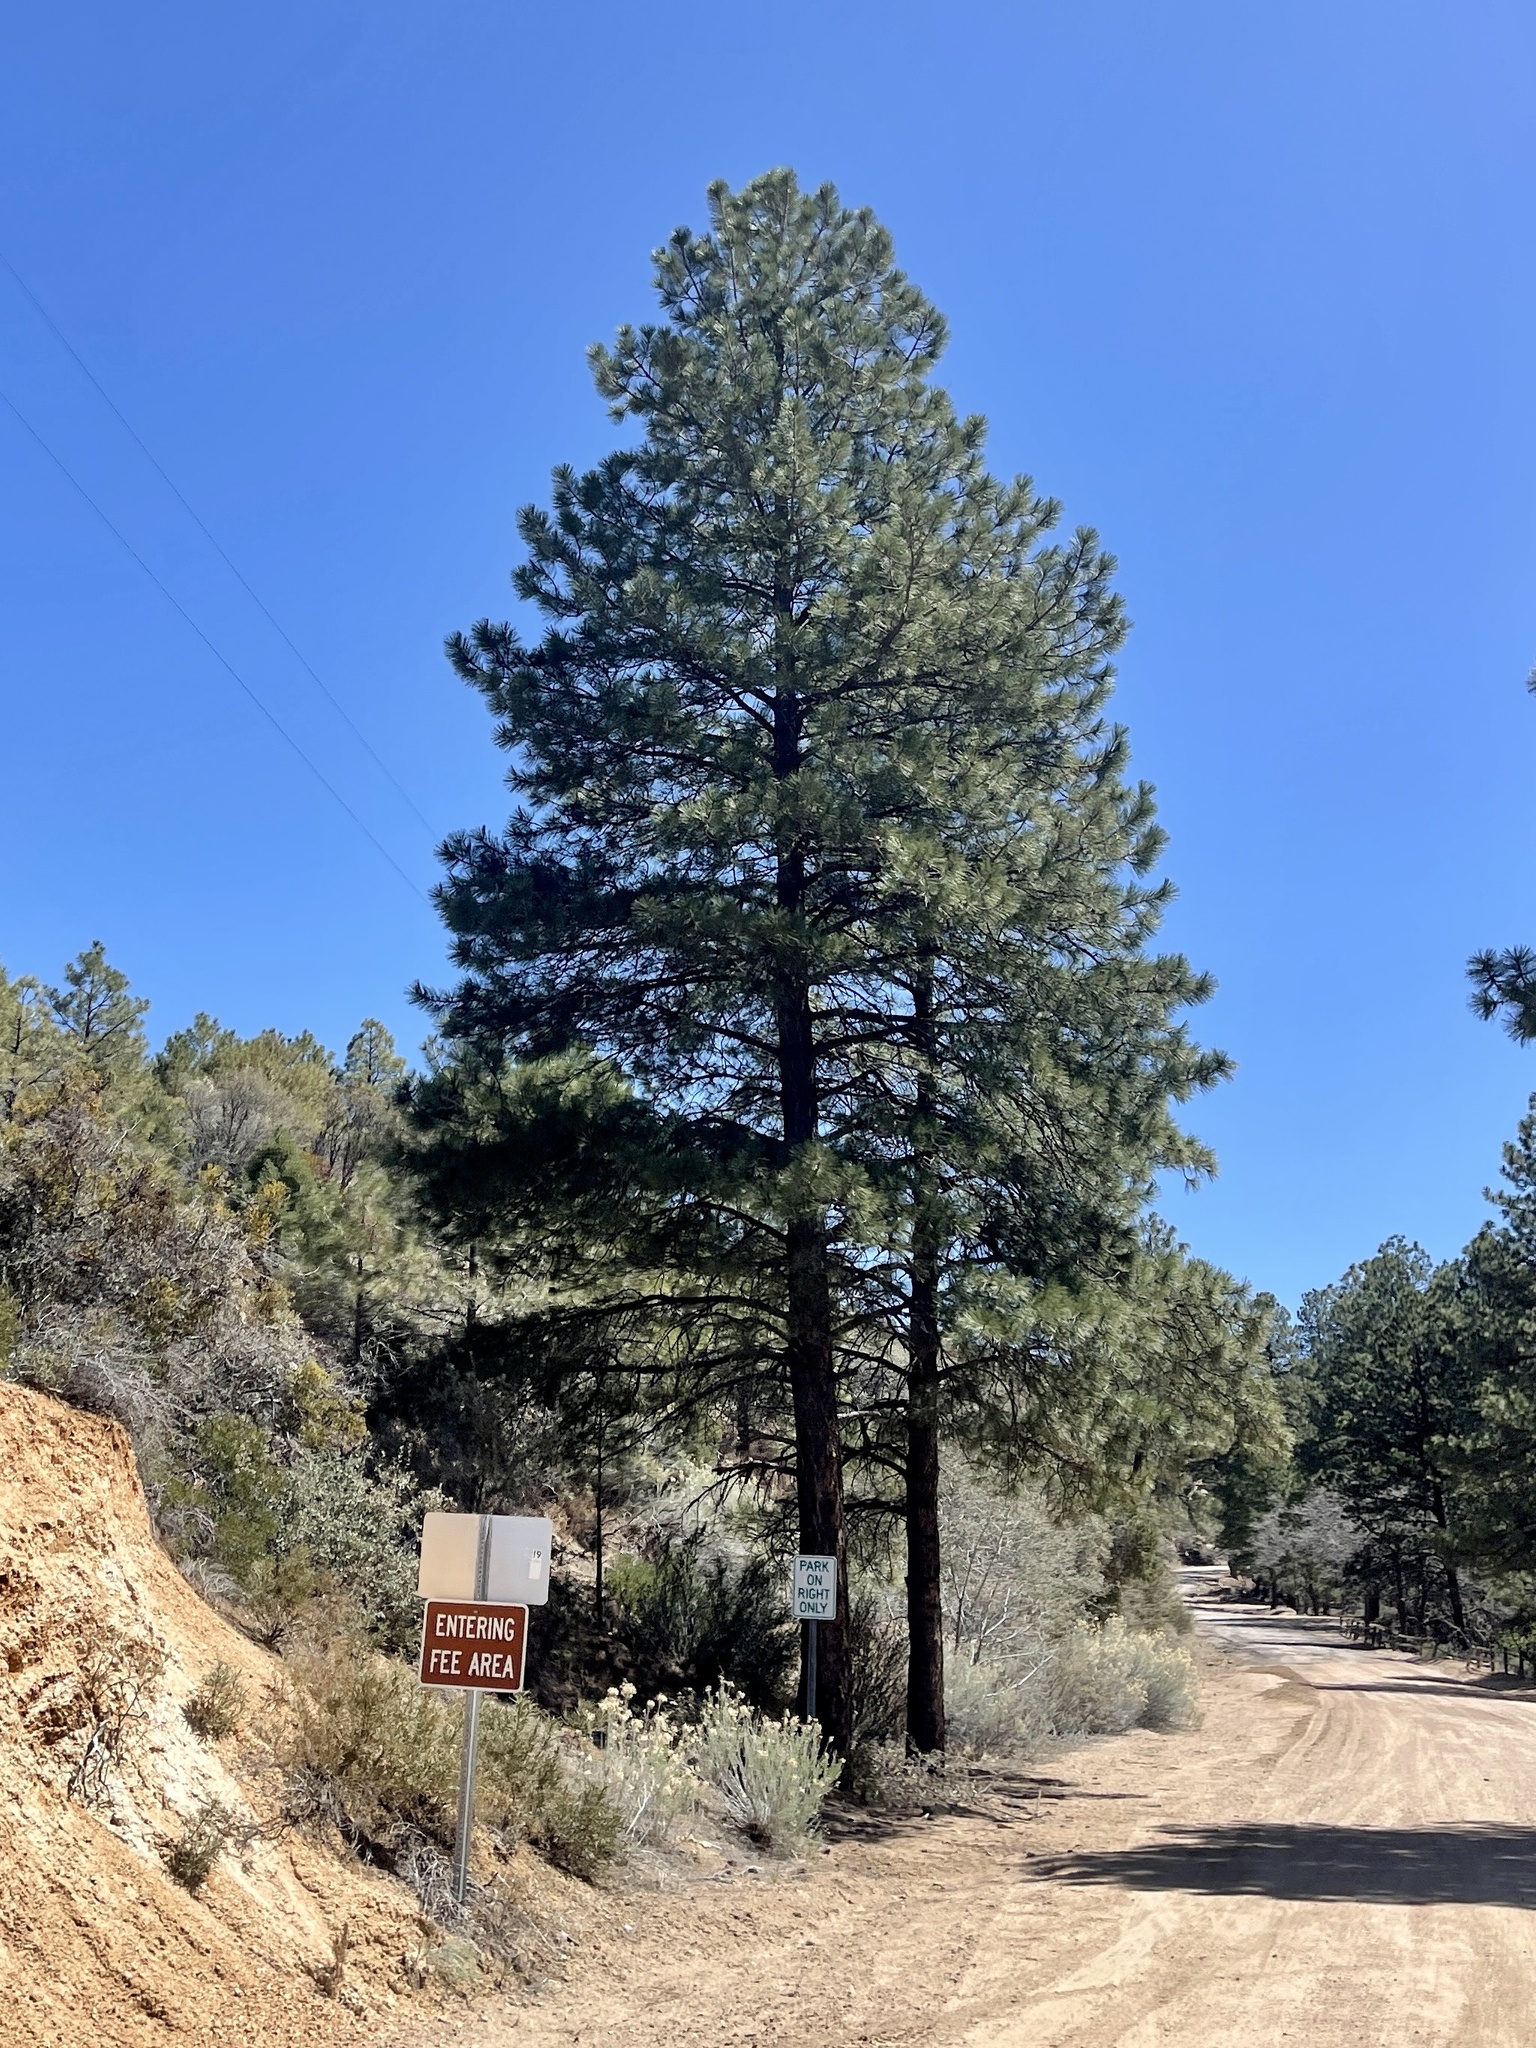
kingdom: Plantae
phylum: Tracheophyta
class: Pinopsida
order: Pinales
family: Pinaceae
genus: Pinus
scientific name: Pinus ponderosa
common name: Western yellow-pine
